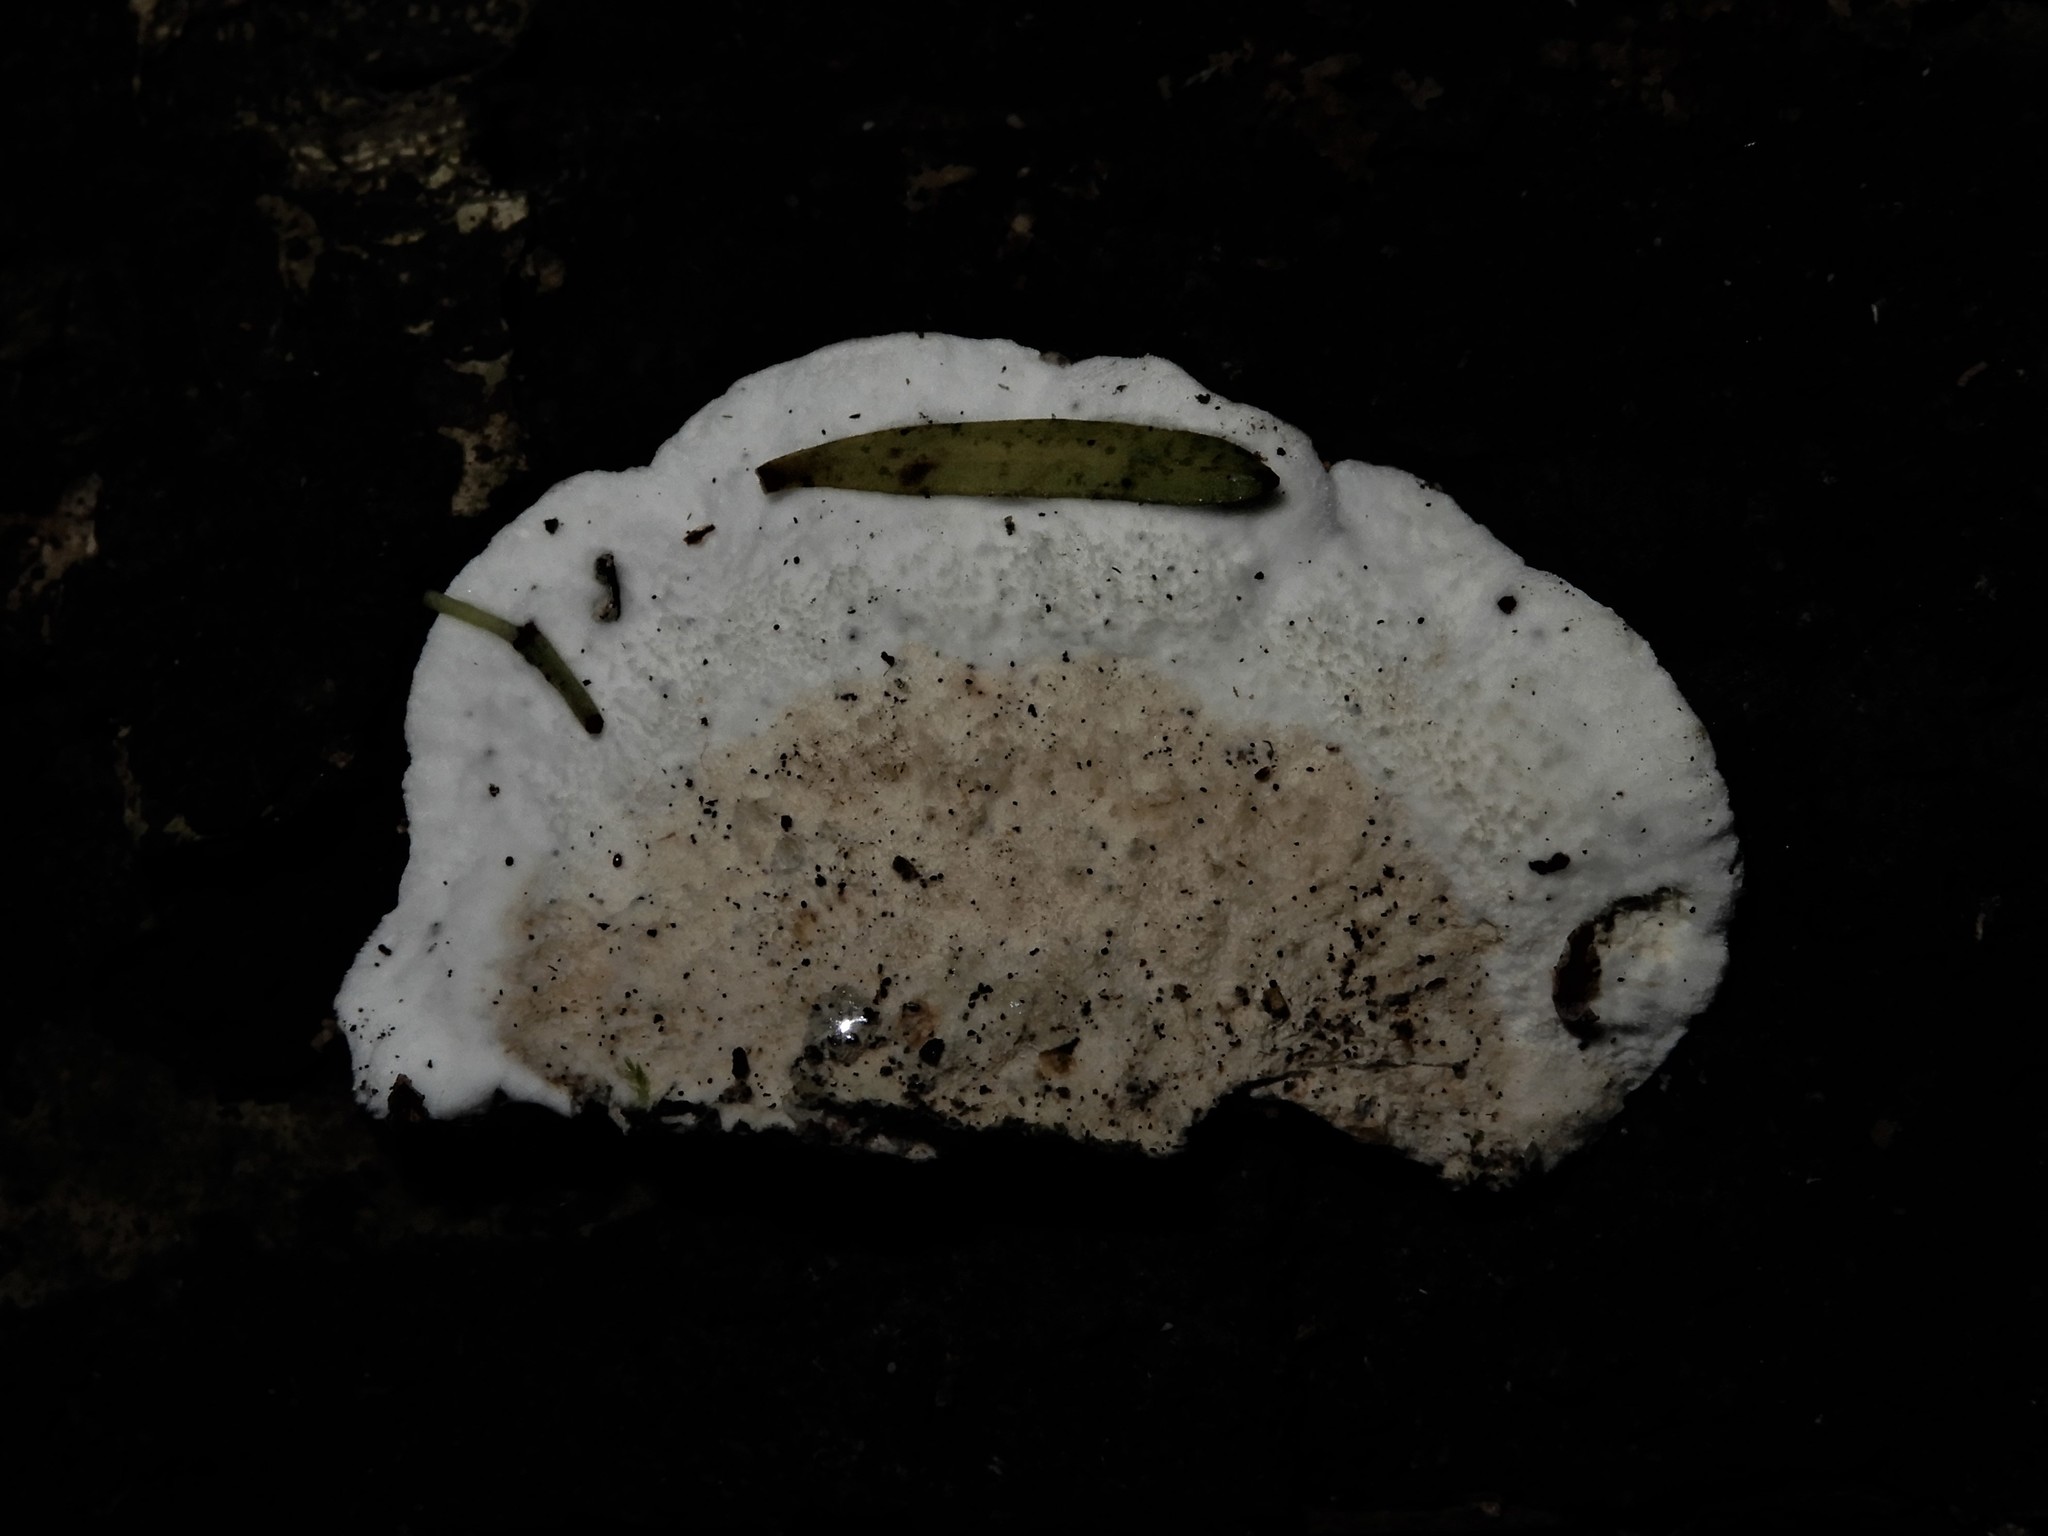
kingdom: Fungi
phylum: Basidiomycota
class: Agaricomycetes
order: Polyporales
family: Irpicaceae
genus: Vitreoporus
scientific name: Vitreoporus dichrous
